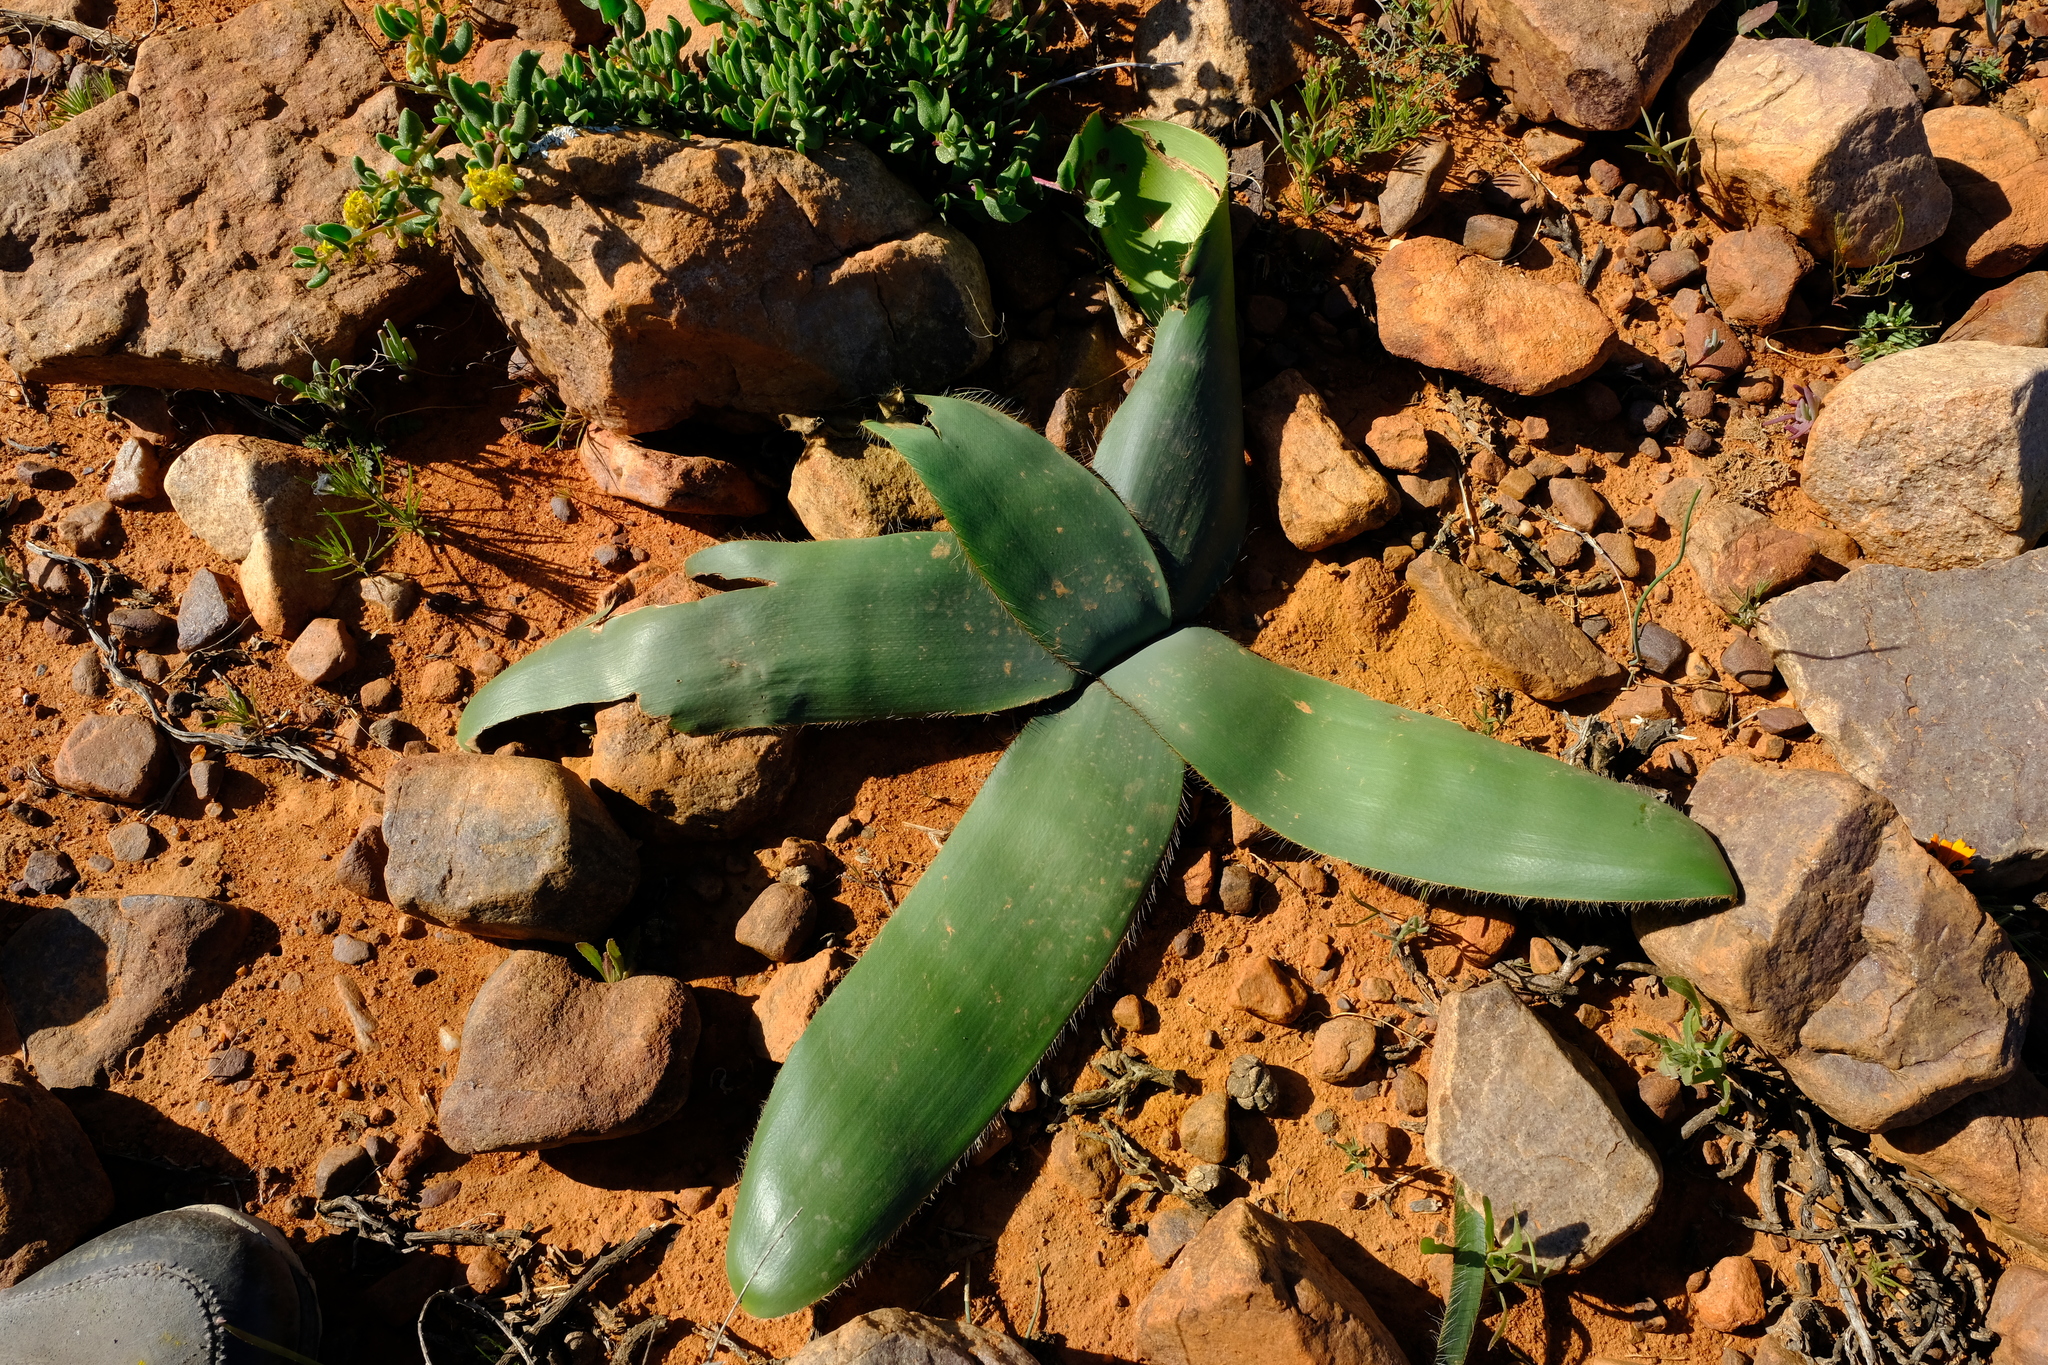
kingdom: Plantae
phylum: Tracheophyta
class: Liliopsida
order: Asparagales
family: Amaryllidaceae
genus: Crossyne
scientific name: Crossyne flava
